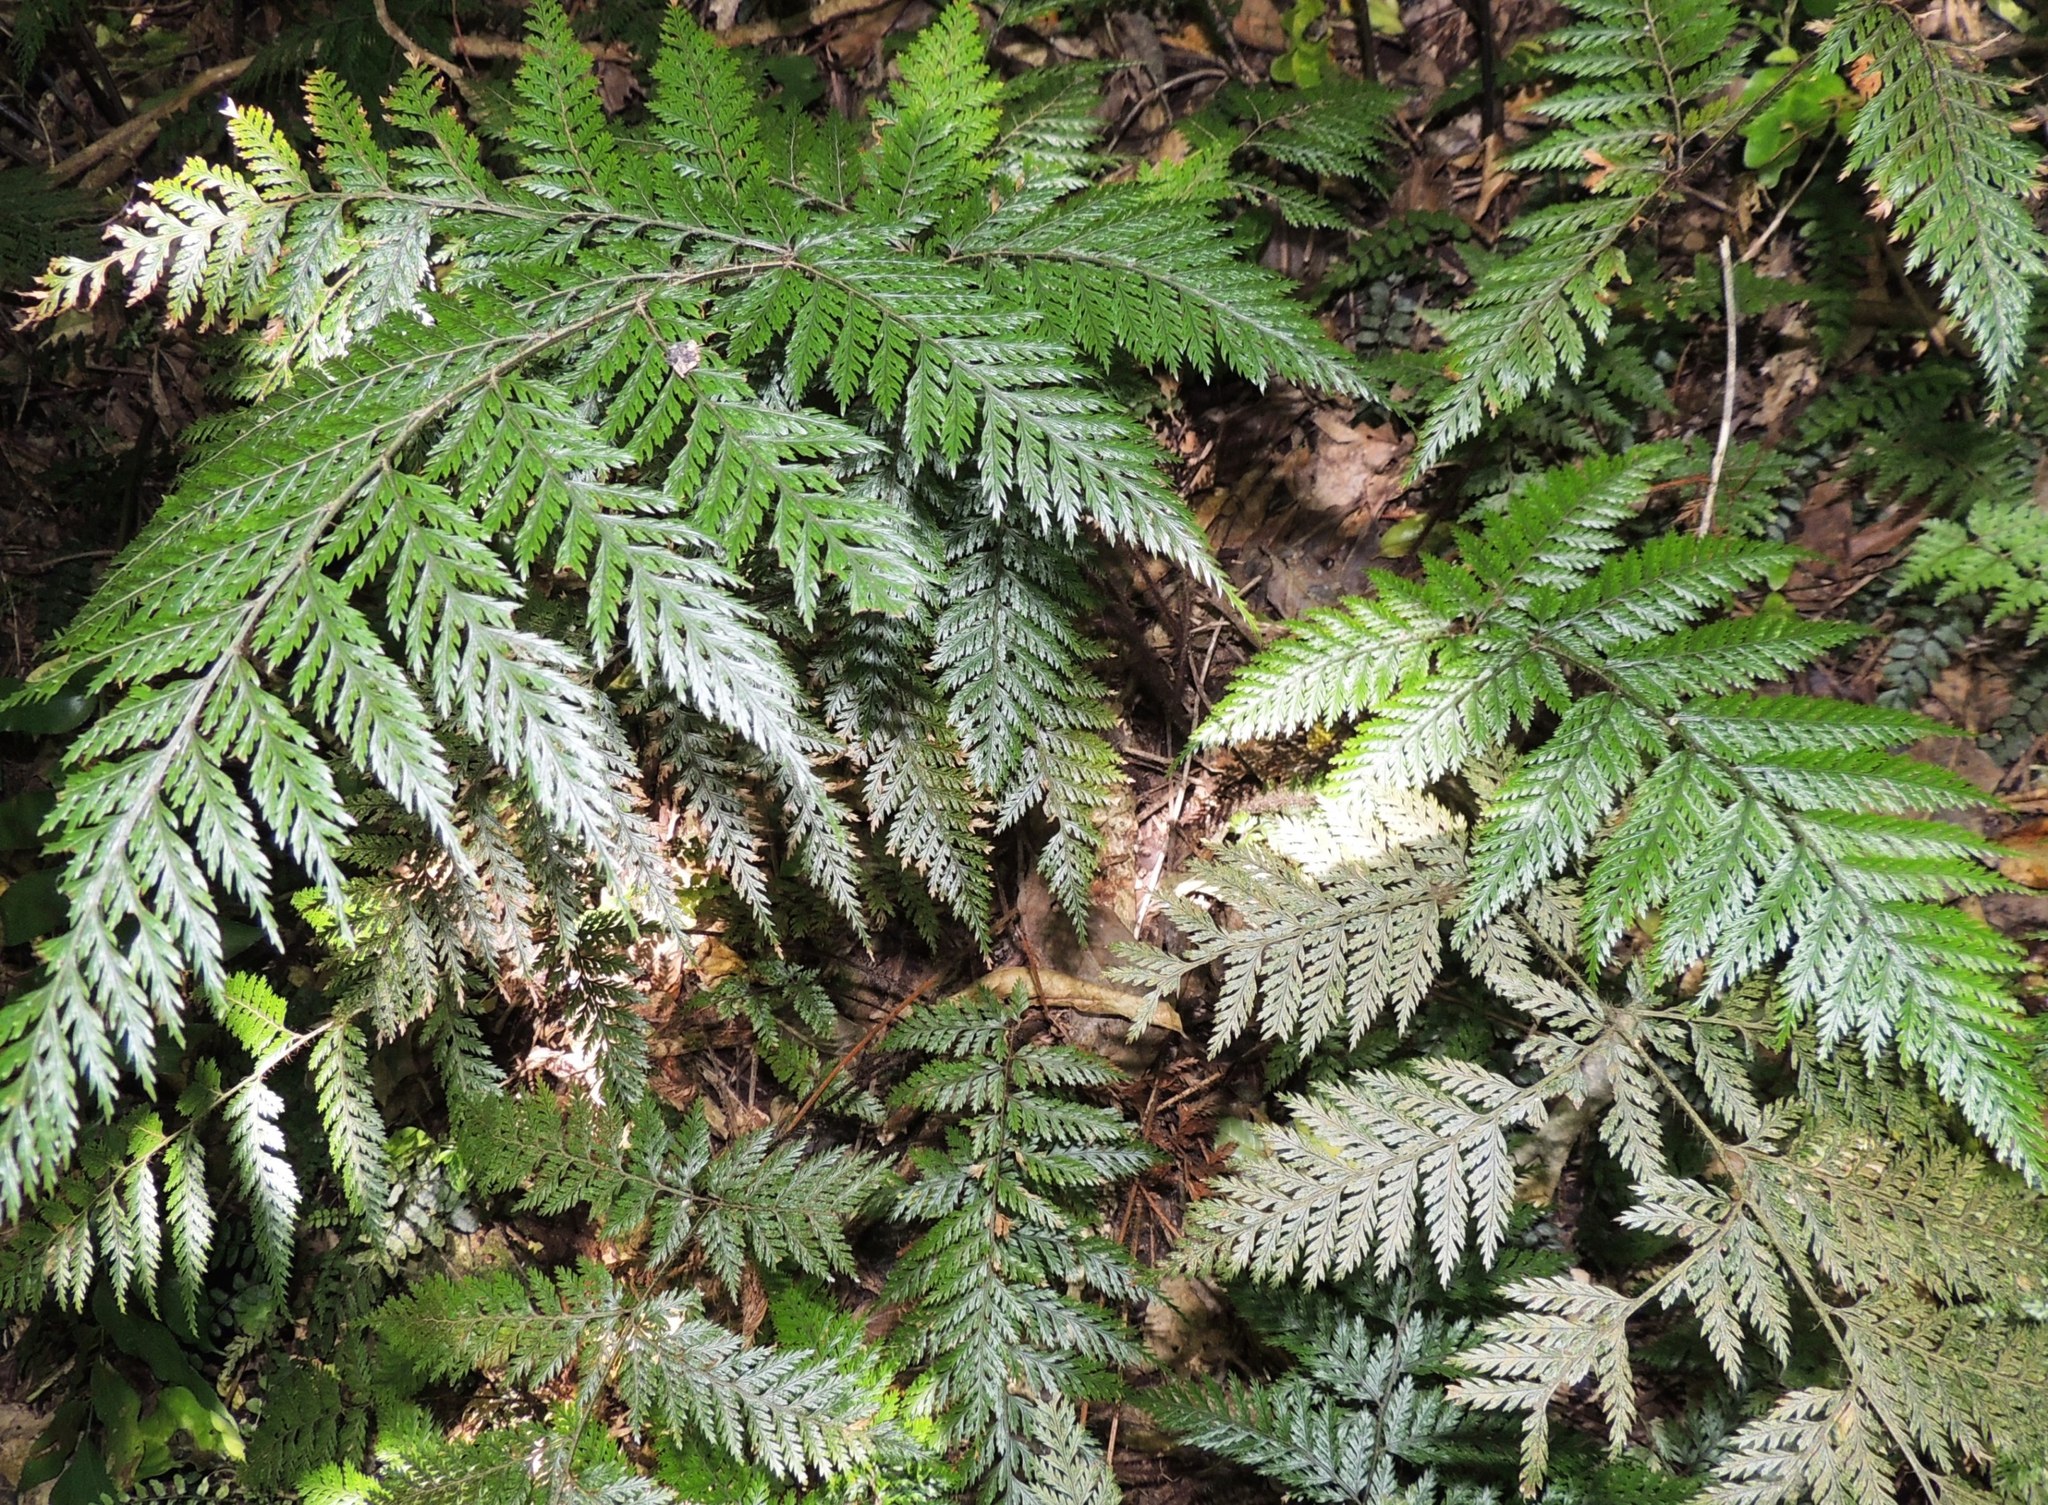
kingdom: Plantae
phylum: Tracheophyta
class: Polypodiopsida
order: Polypodiales
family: Dryopteridaceae
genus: Lastreopsis
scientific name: Lastreopsis hispida
